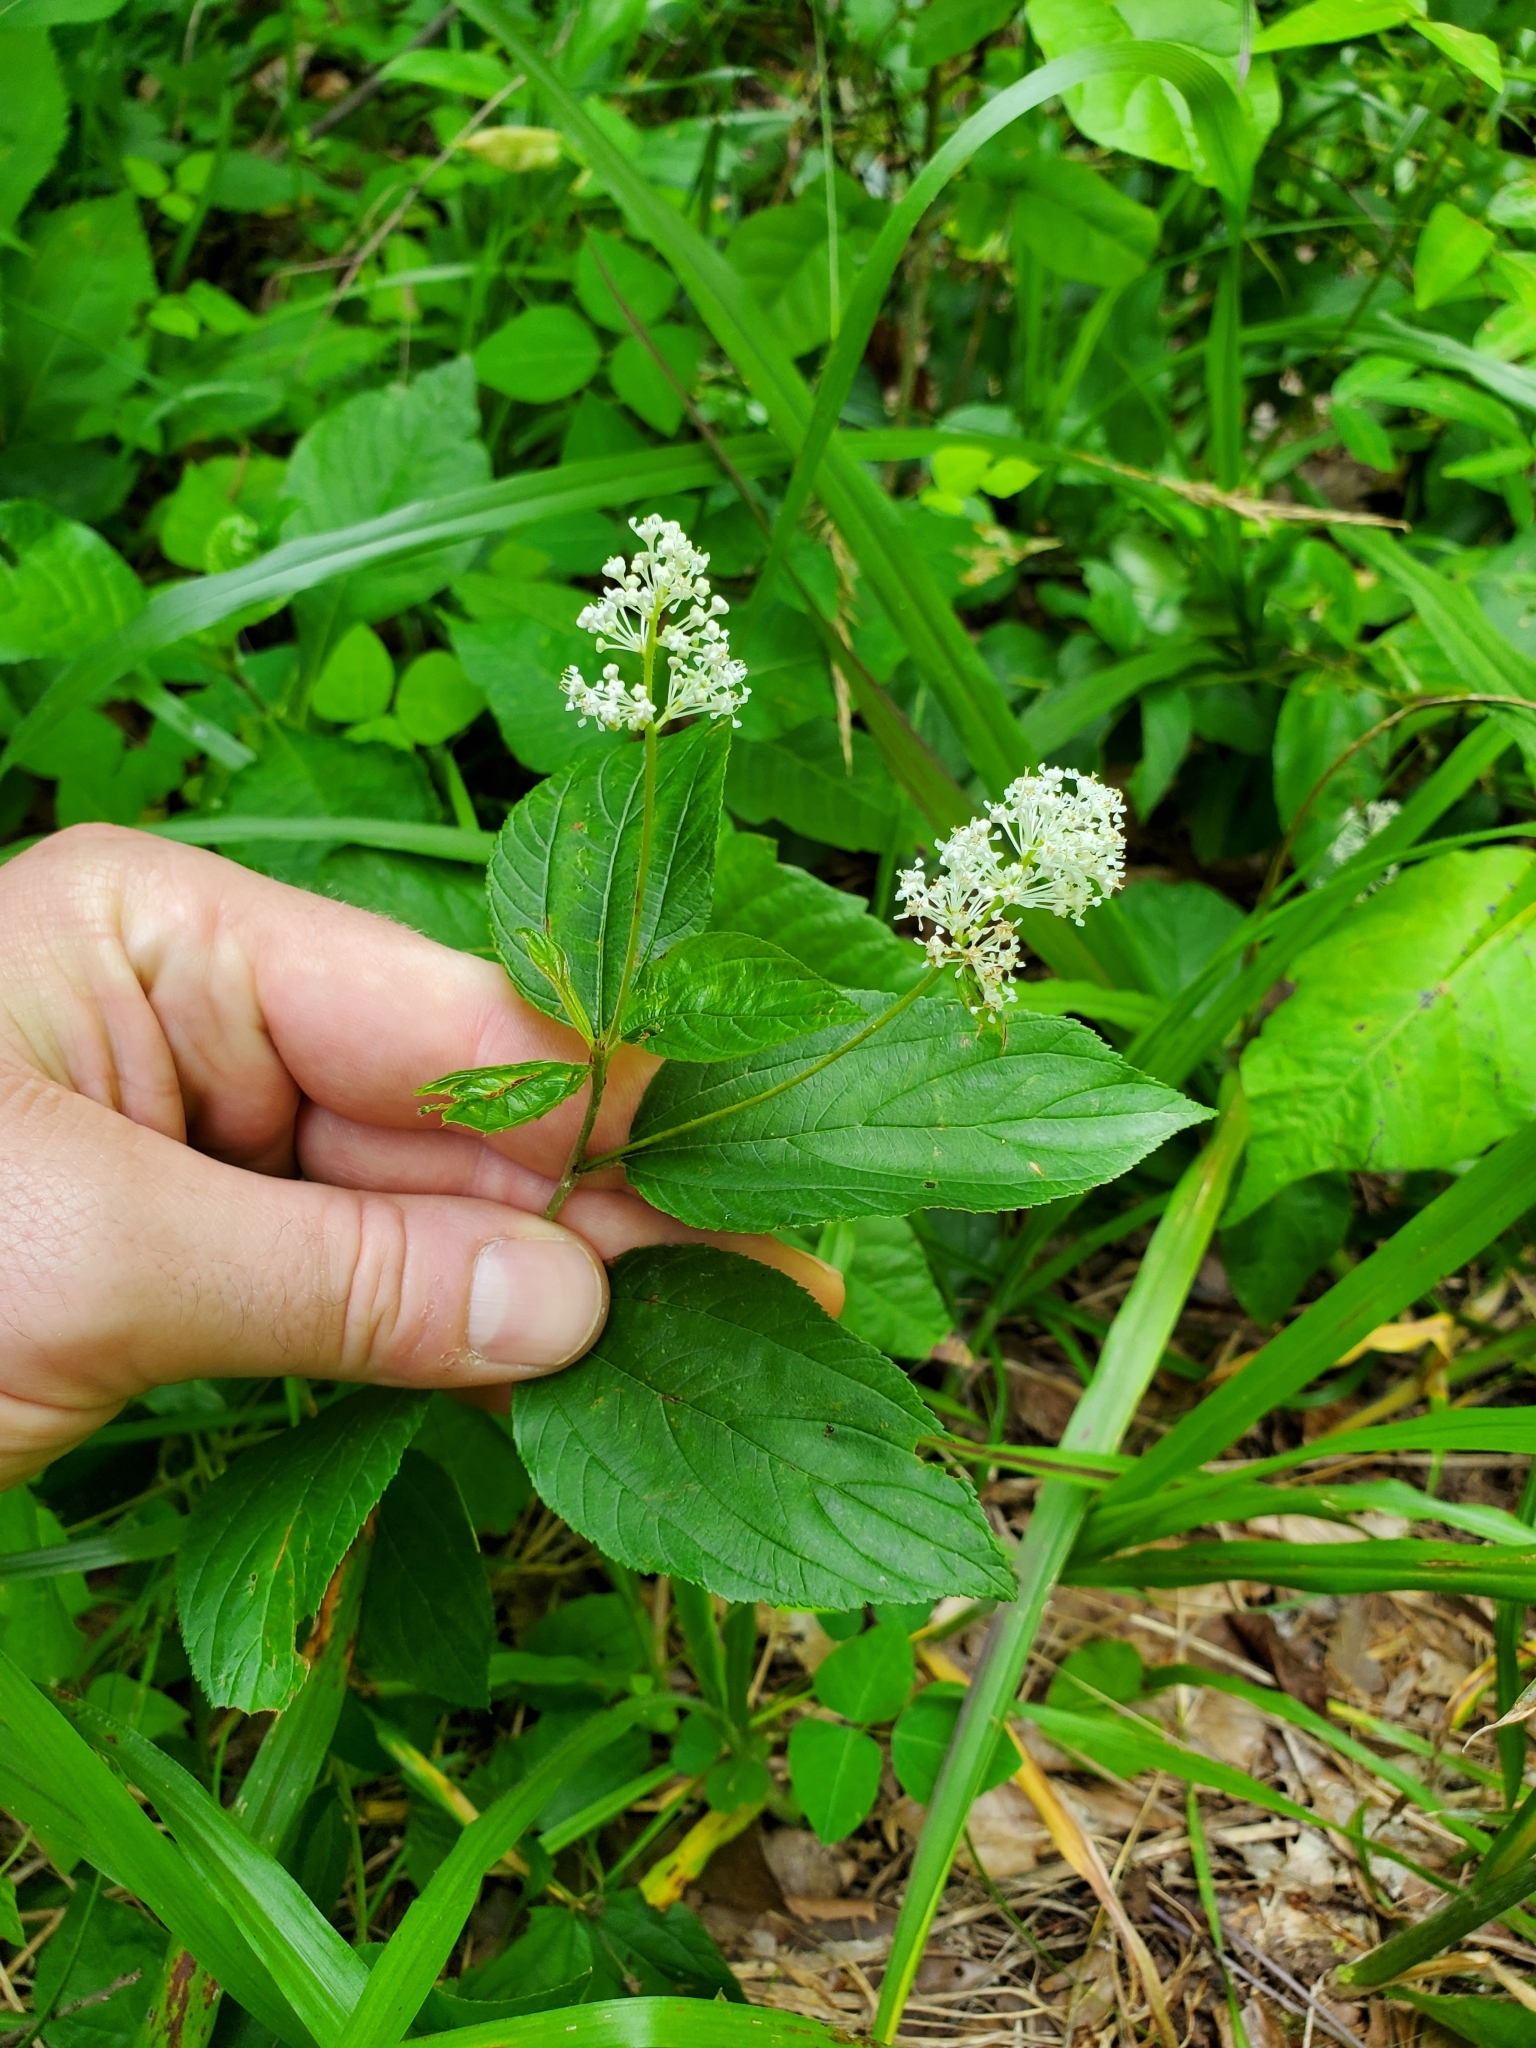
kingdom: Plantae
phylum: Tracheophyta
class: Magnoliopsida
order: Rosales
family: Rhamnaceae
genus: Ceanothus
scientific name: Ceanothus americanus
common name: Redroot
